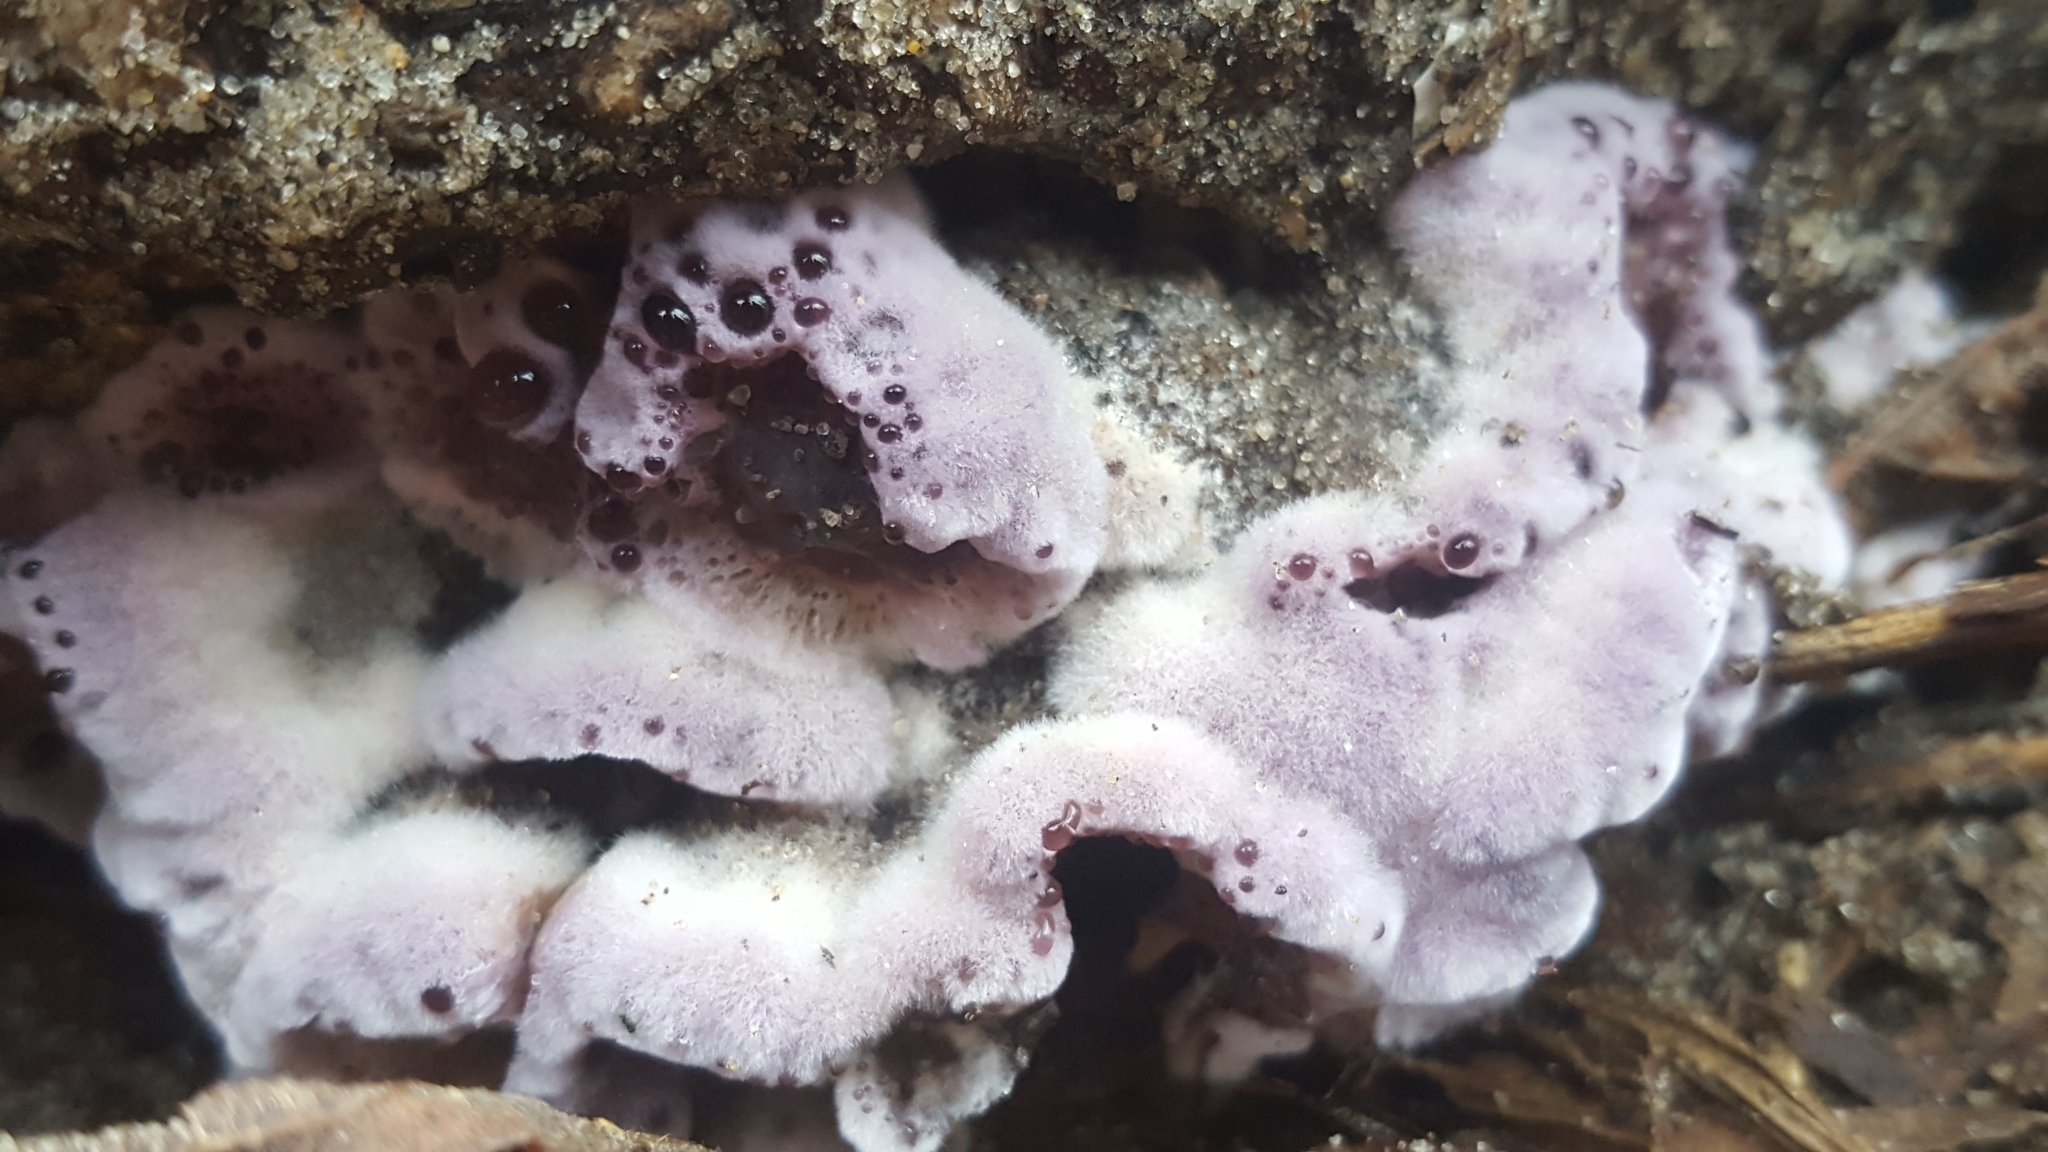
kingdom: Fungi
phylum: Basidiomycota
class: Agaricomycetes
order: Agaricales
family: Cyphellaceae
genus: Chondrostereum
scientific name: Chondrostereum purpureum
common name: Silver leaf disease
